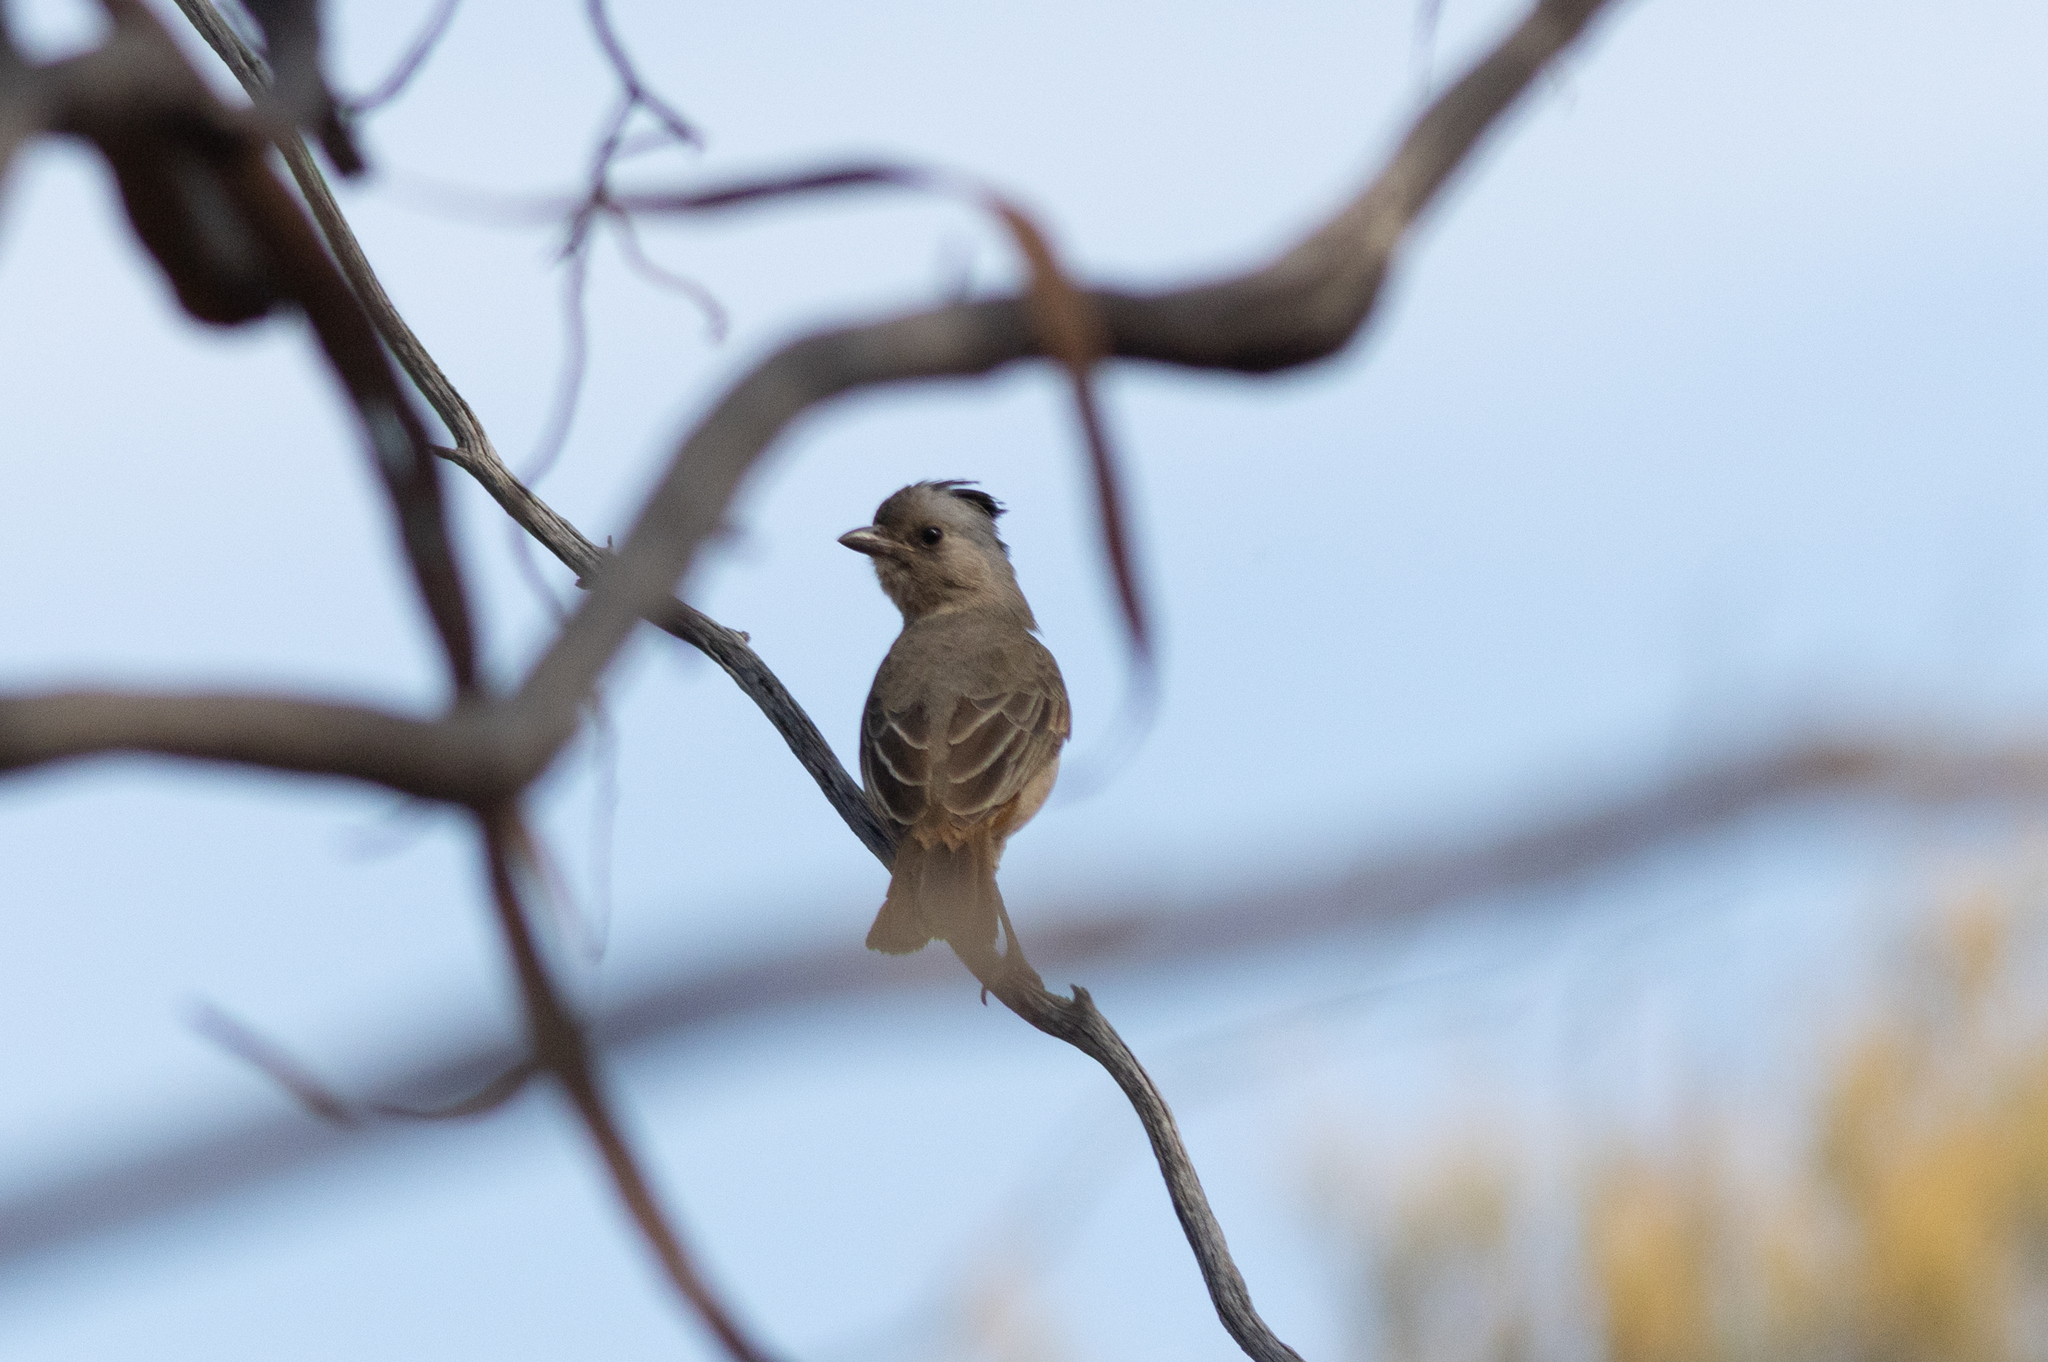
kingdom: Animalia
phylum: Chordata
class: Aves
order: Passeriformes
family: Oreoicidae
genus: Oreoica
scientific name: Oreoica gutturalis
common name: Crested bellbird
